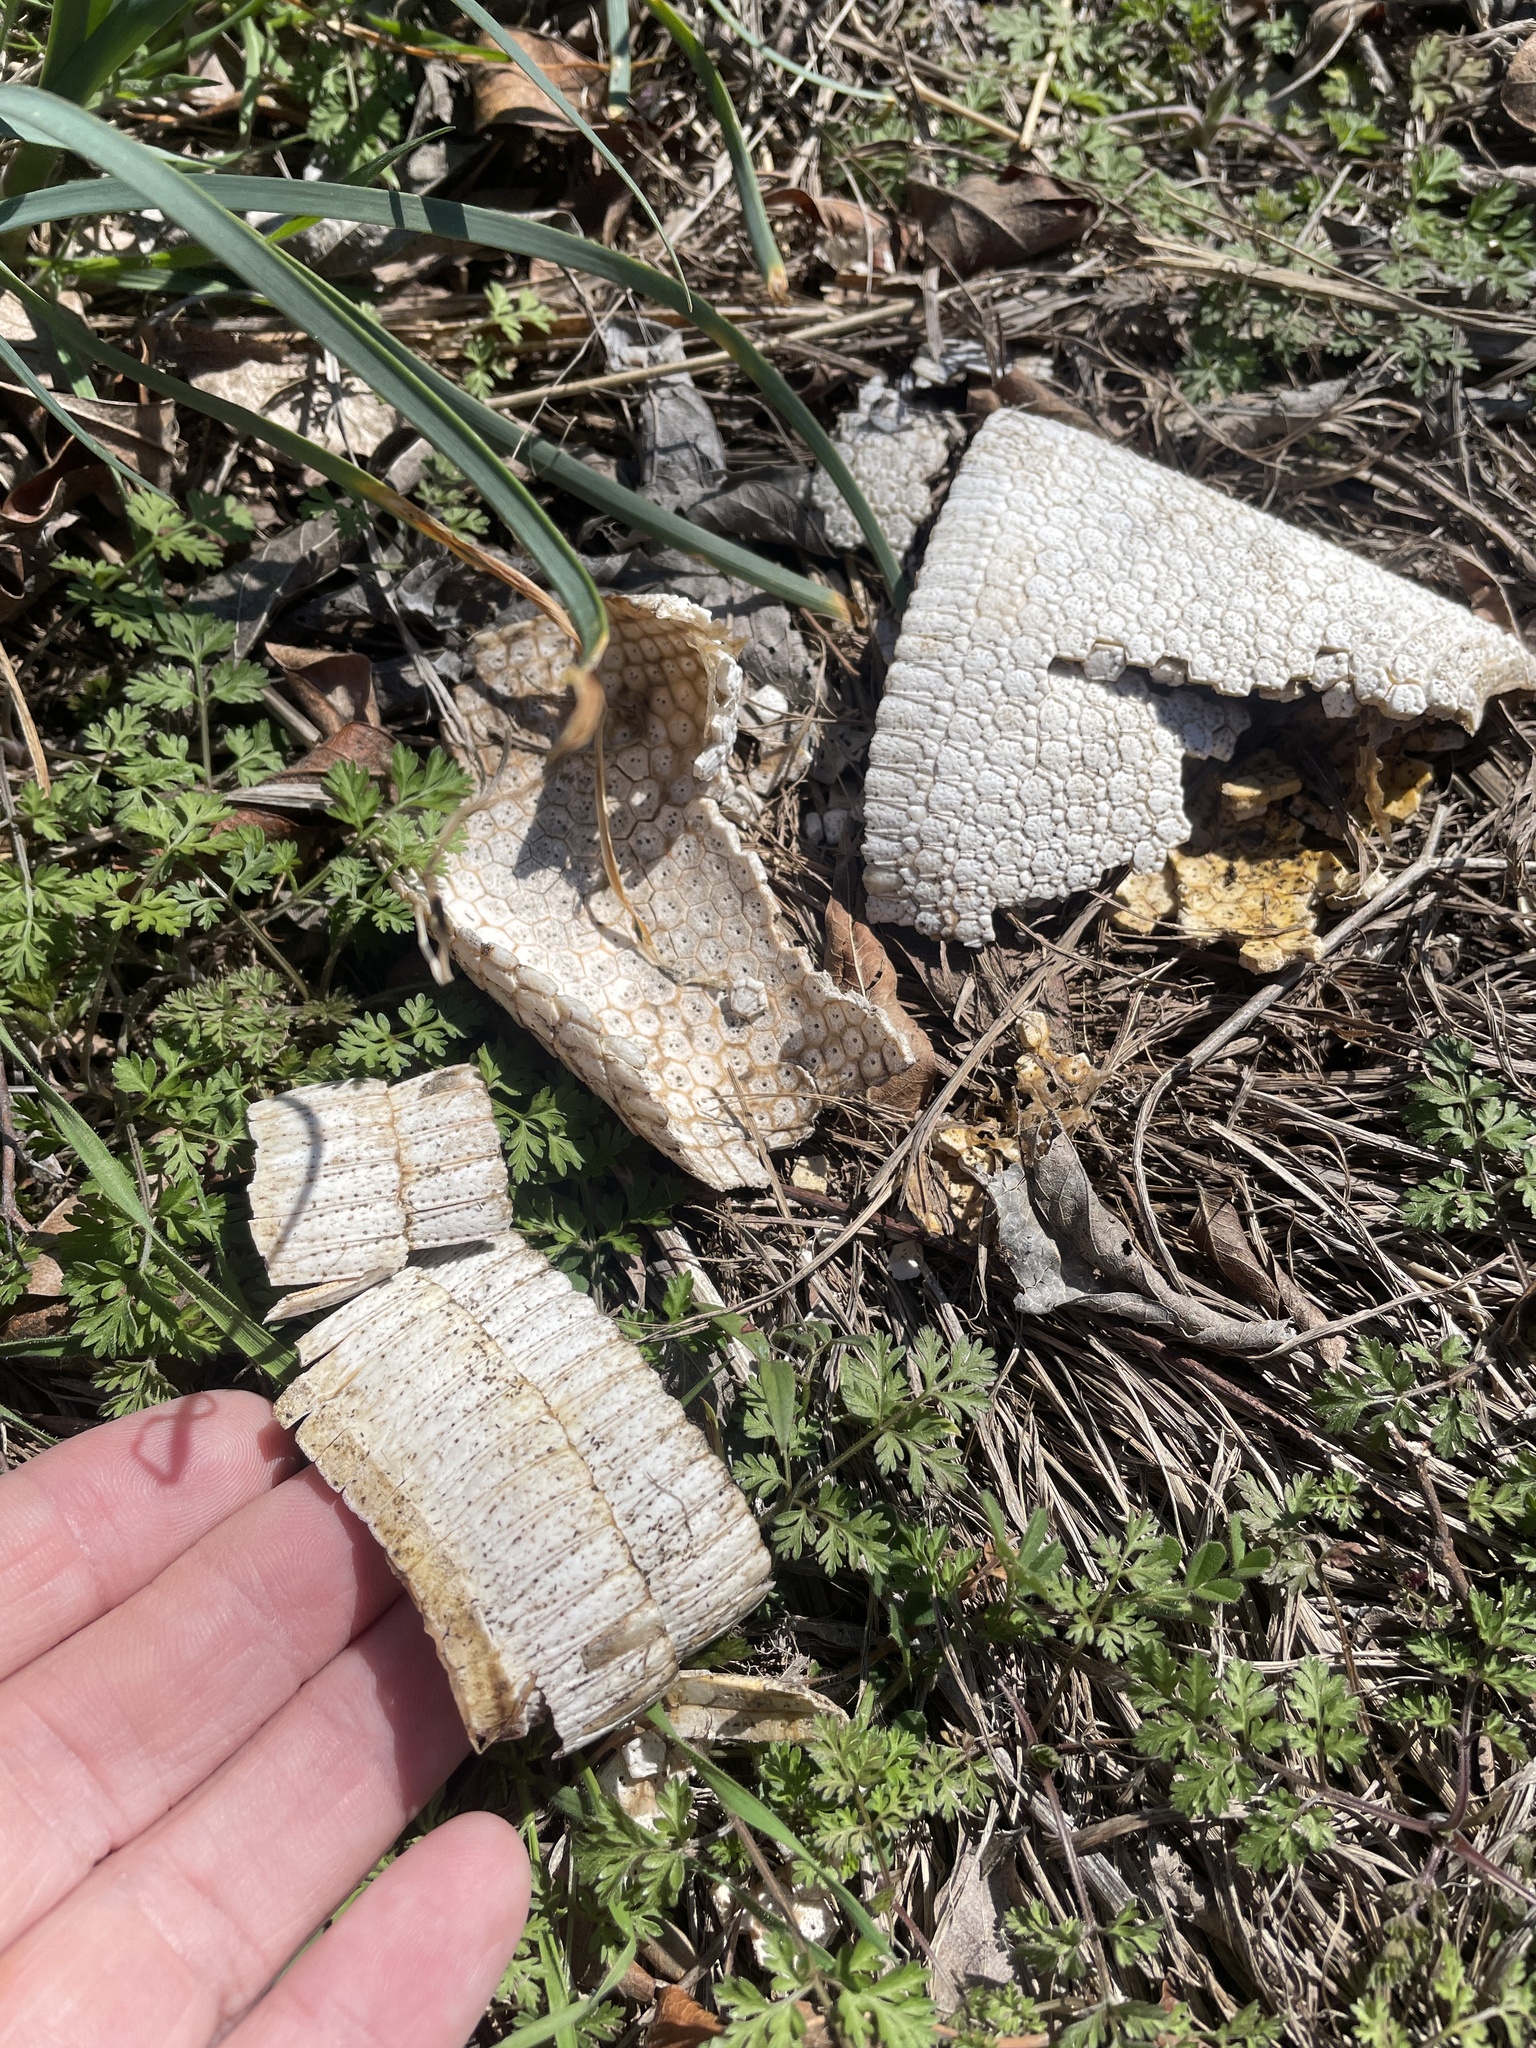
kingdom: Animalia
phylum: Chordata
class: Mammalia
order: Cingulata
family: Dasypodidae
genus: Dasypus
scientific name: Dasypus novemcinctus
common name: Nine-banded armadillo
